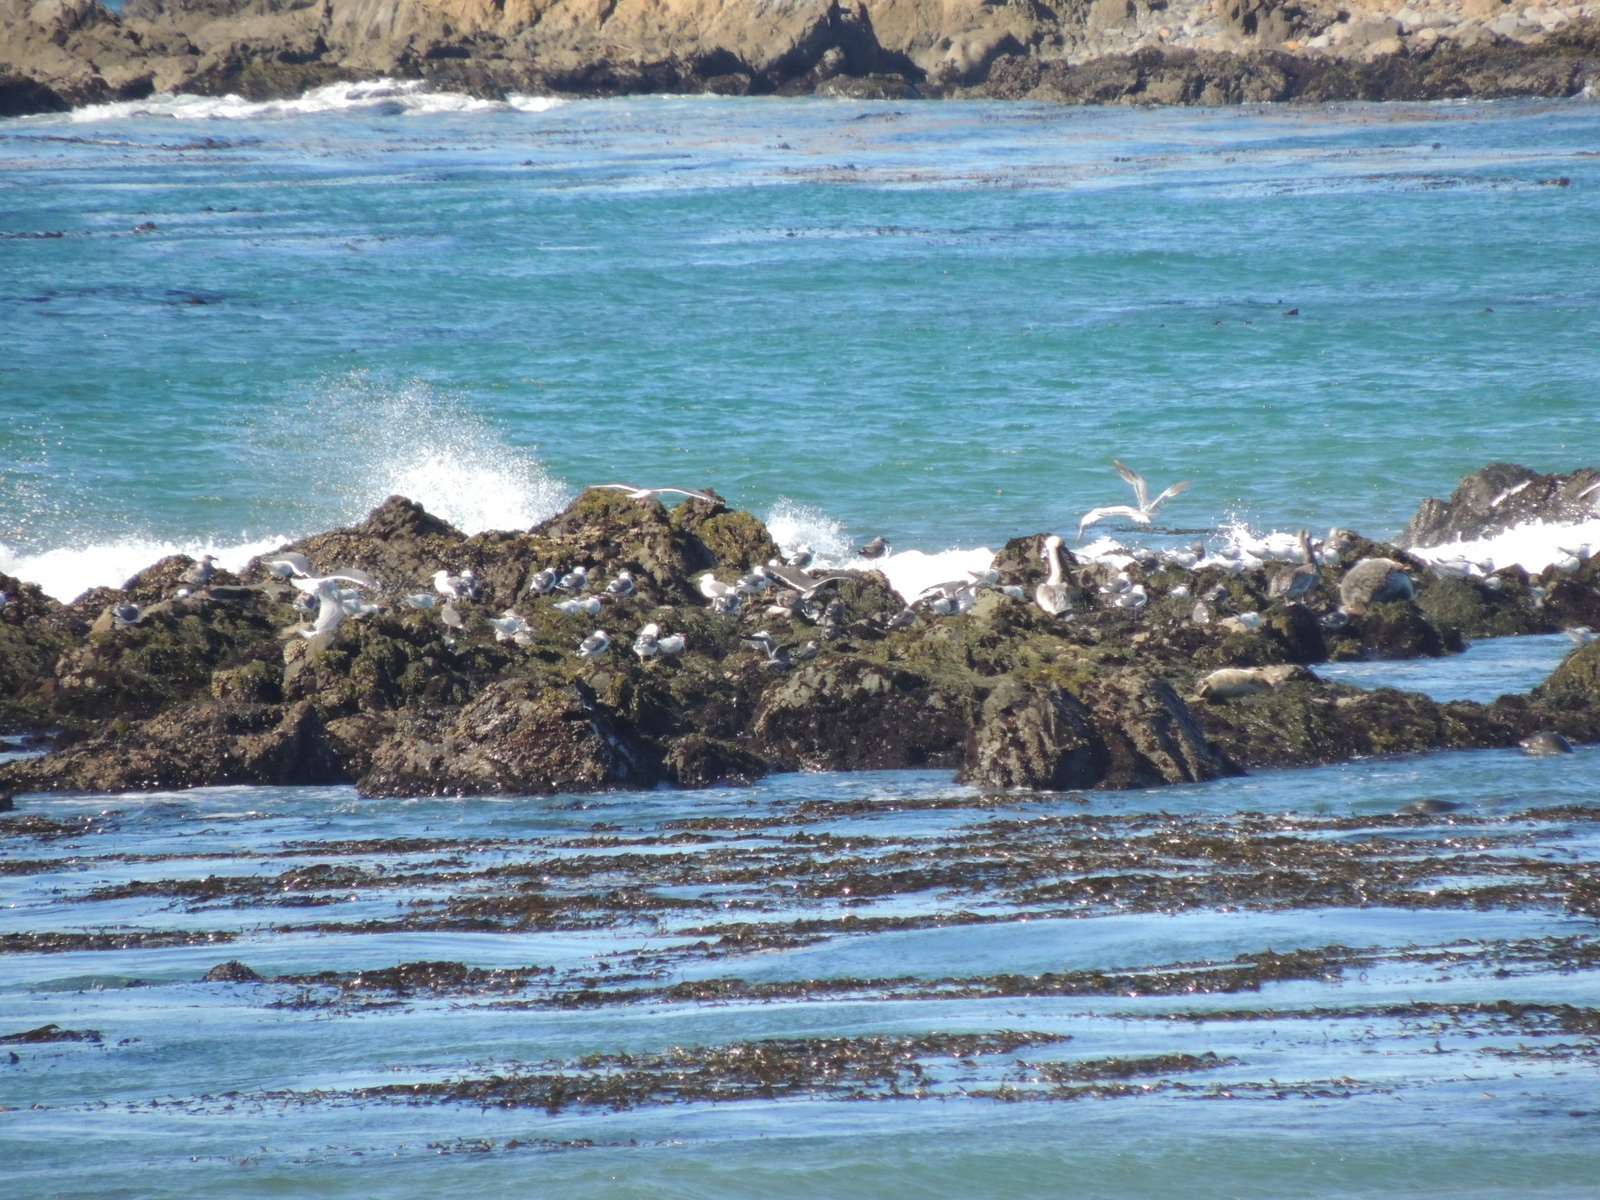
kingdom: Animalia
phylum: Chordata
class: Aves
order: Charadriiformes
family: Laridae
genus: Larus
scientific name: Larus occidentalis
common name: Western gull
